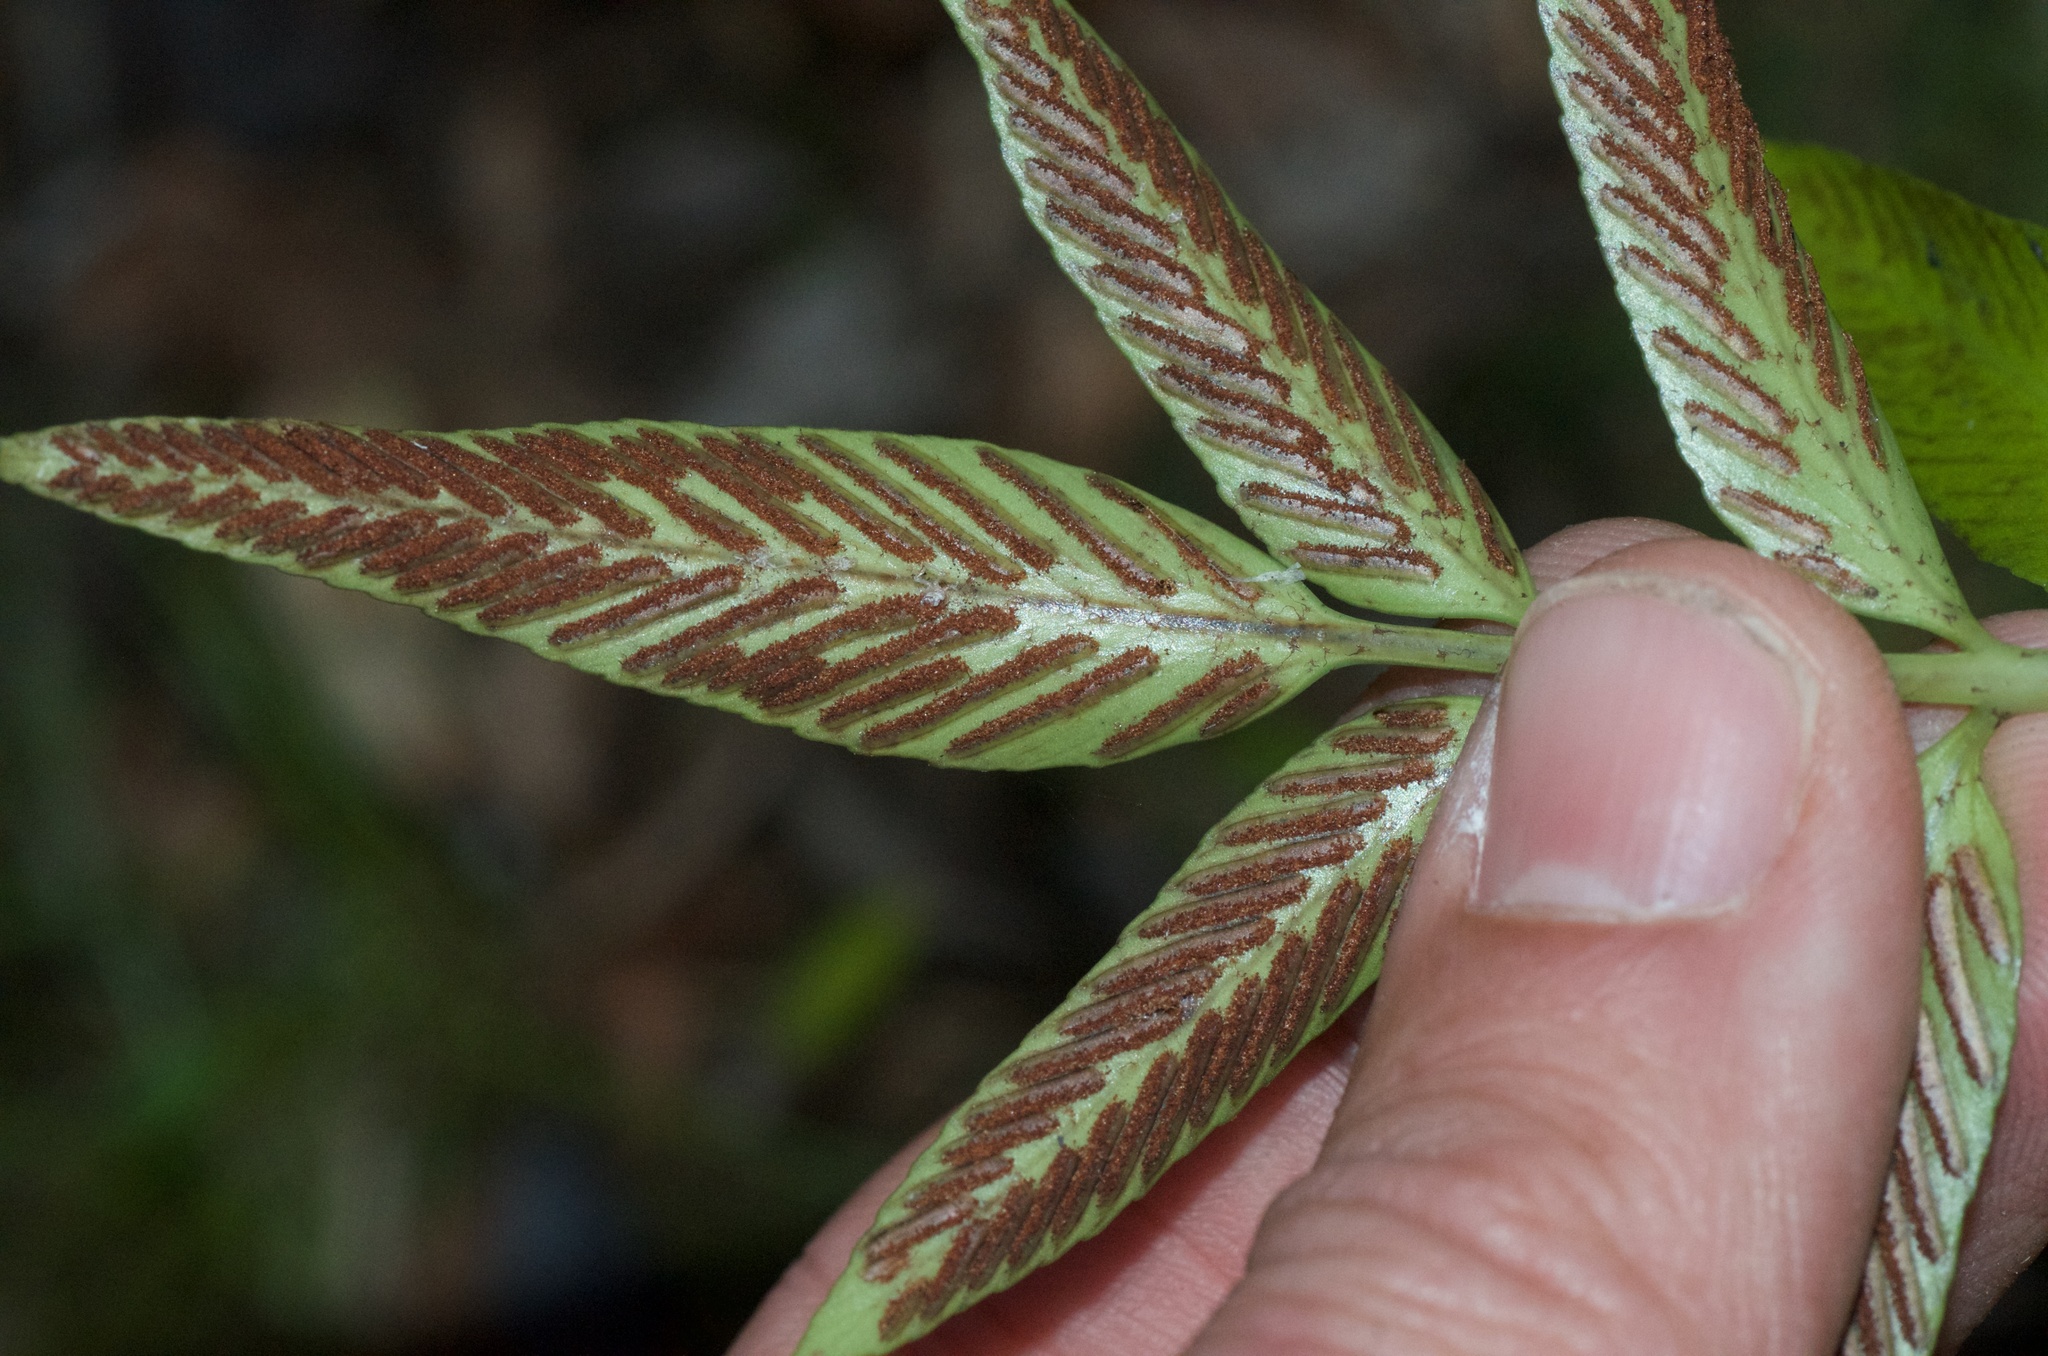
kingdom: Plantae
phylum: Tracheophyta
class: Polypodiopsida
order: Polypodiales
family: Aspleniaceae
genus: Asplenium
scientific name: Asplenium oblongifolium
